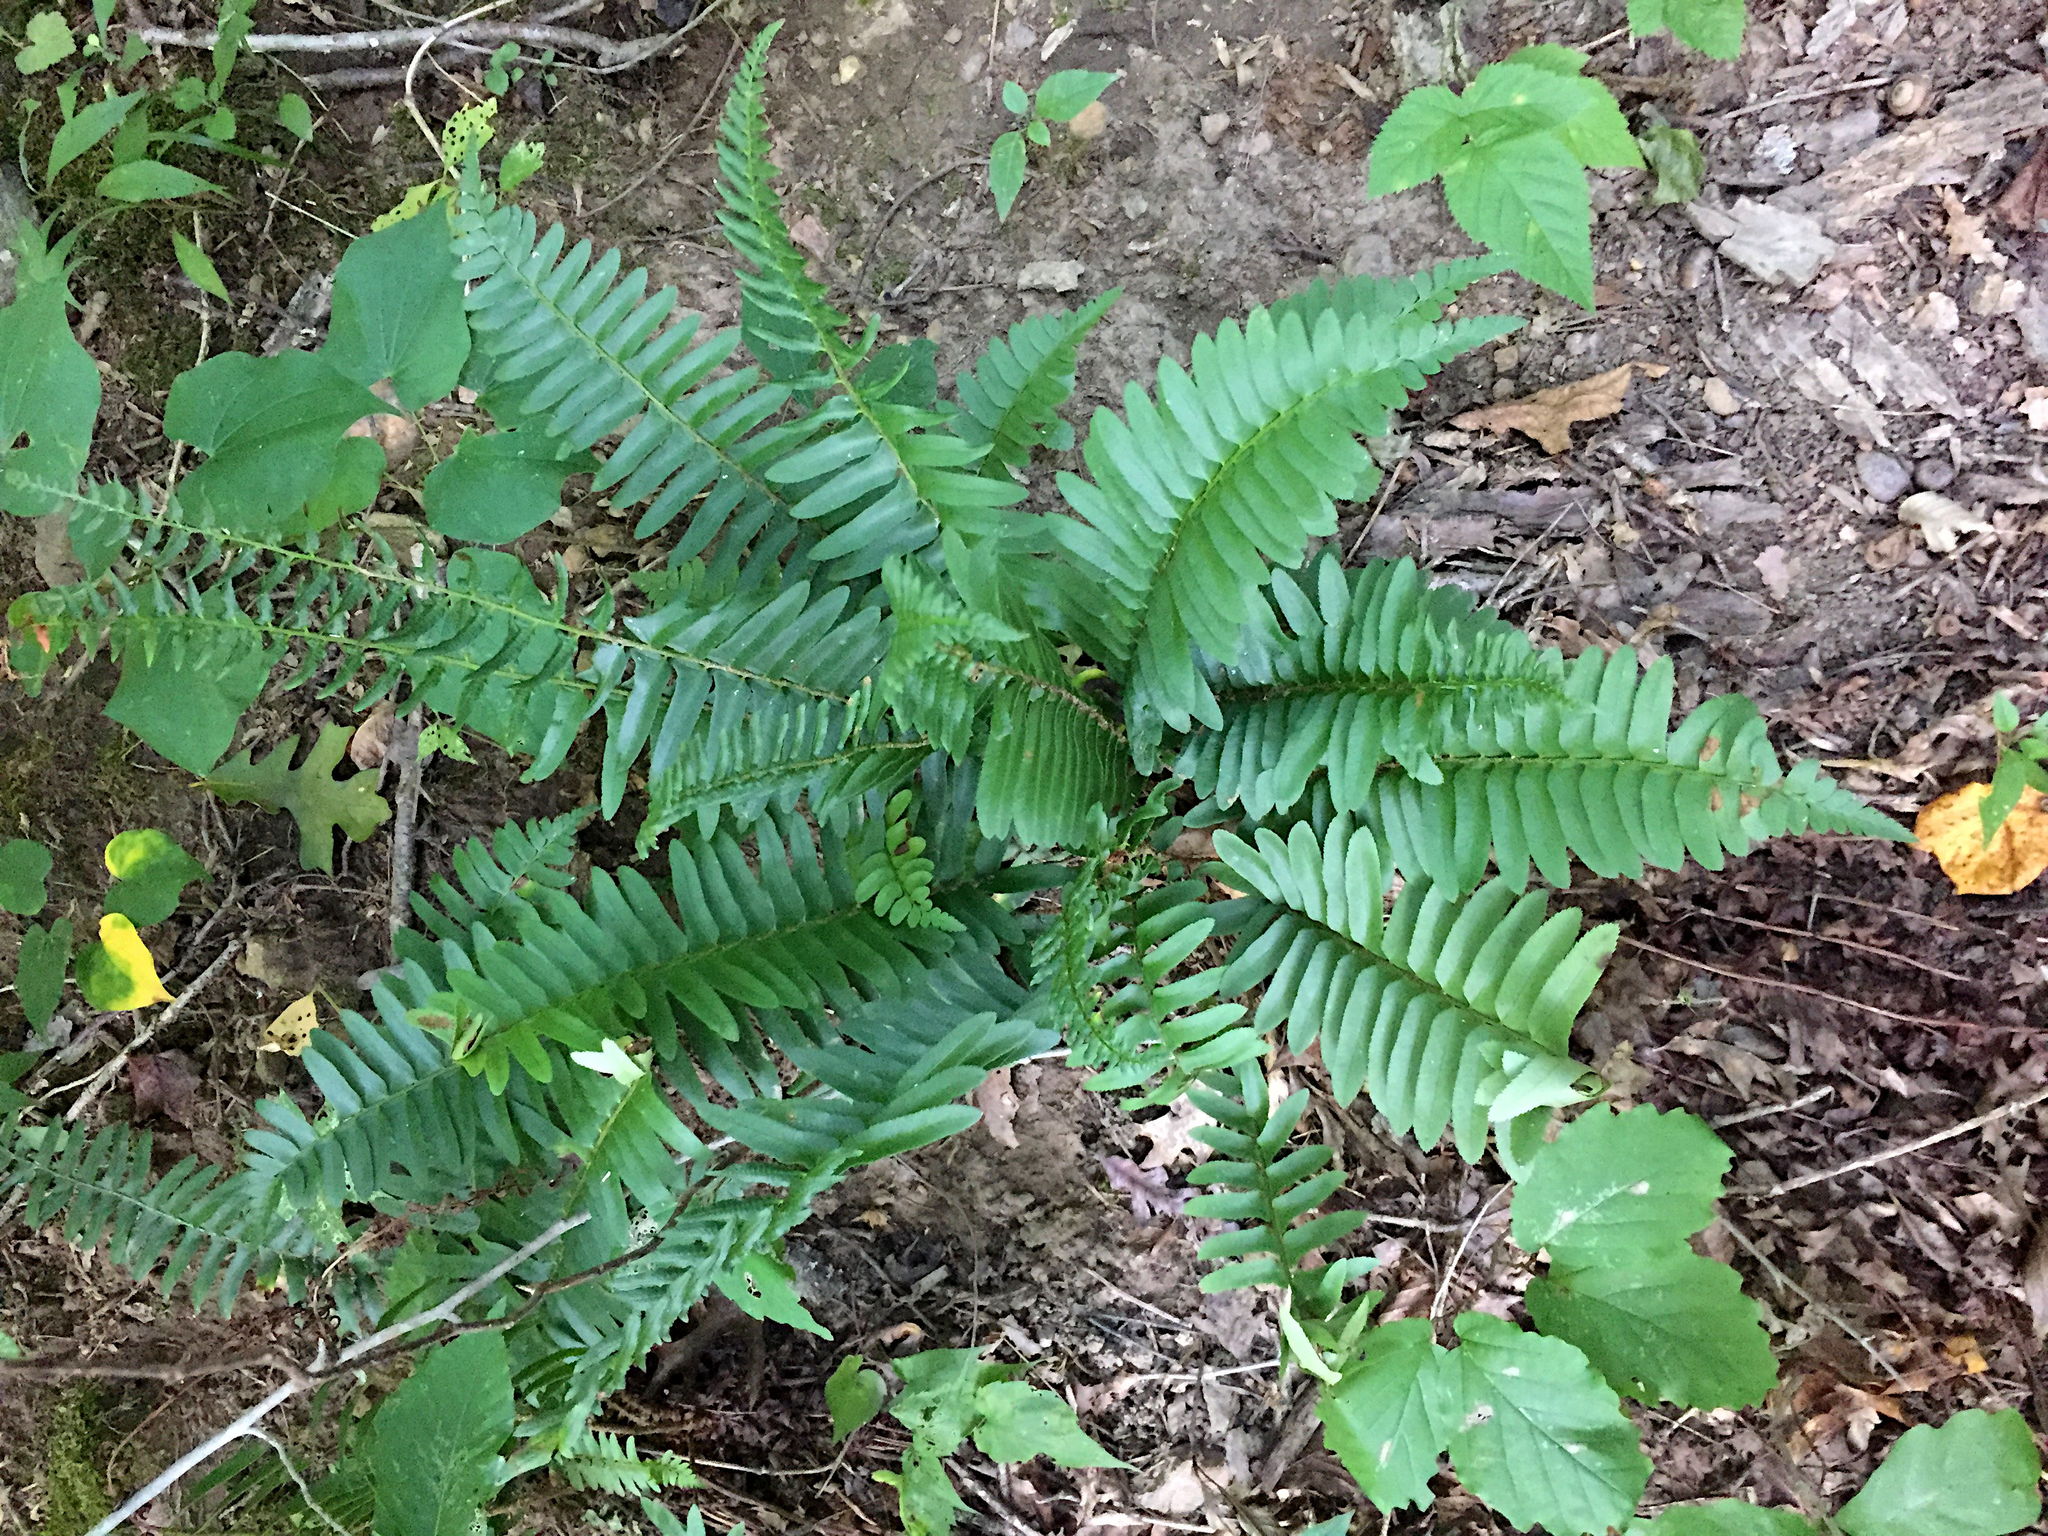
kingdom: Plantae
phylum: Tracheophyta
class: Polypodiopsida
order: Polypodiales
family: Dryopteridaceae
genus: Polystichum
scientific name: Polystichum acrostichoides
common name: Christmas fern
